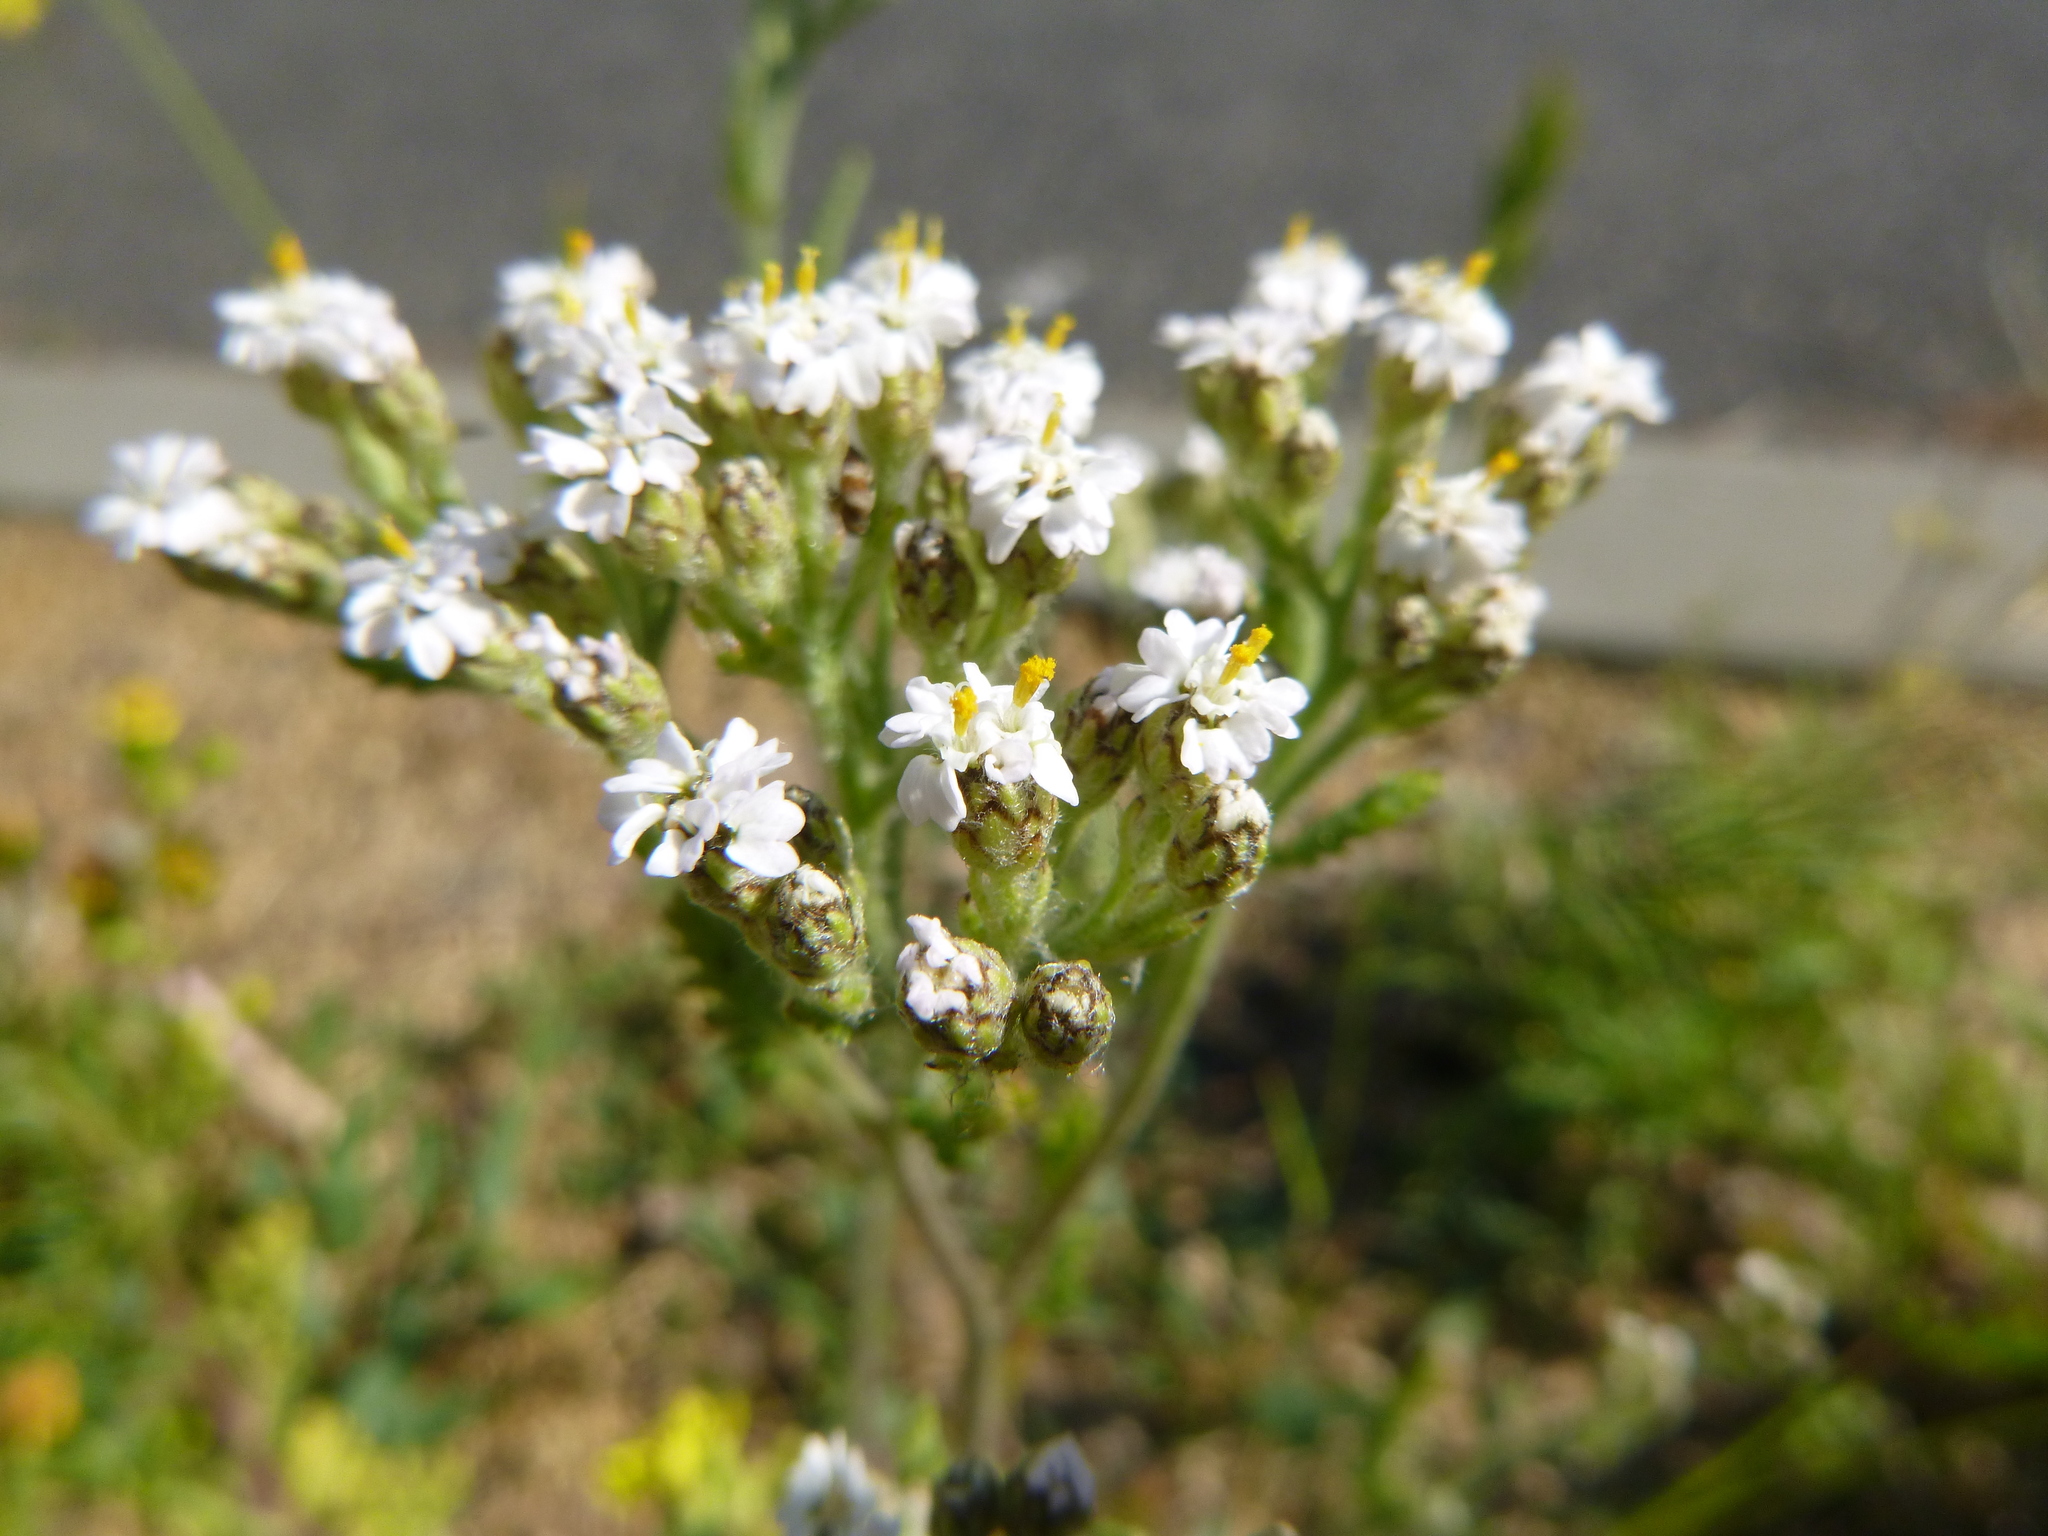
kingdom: Plantae
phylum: Tracheophyta
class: Magnoliopsida
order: Asterales
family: Asteraceae
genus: Achillea
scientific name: Achillea millefolium
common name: Yarrow
